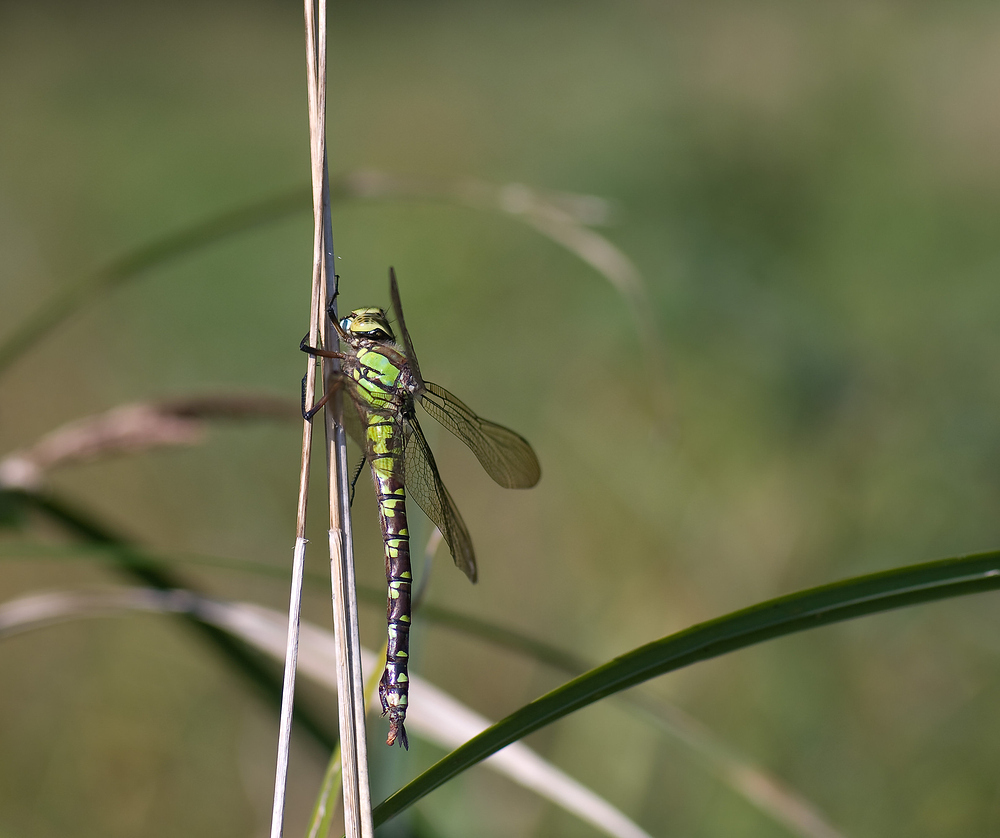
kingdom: Animalia
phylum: Arthropoda
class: Insecta
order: Odonata
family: Aeshnidae
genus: Aeshna
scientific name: Aeshna cyanea
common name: Southern hawker
